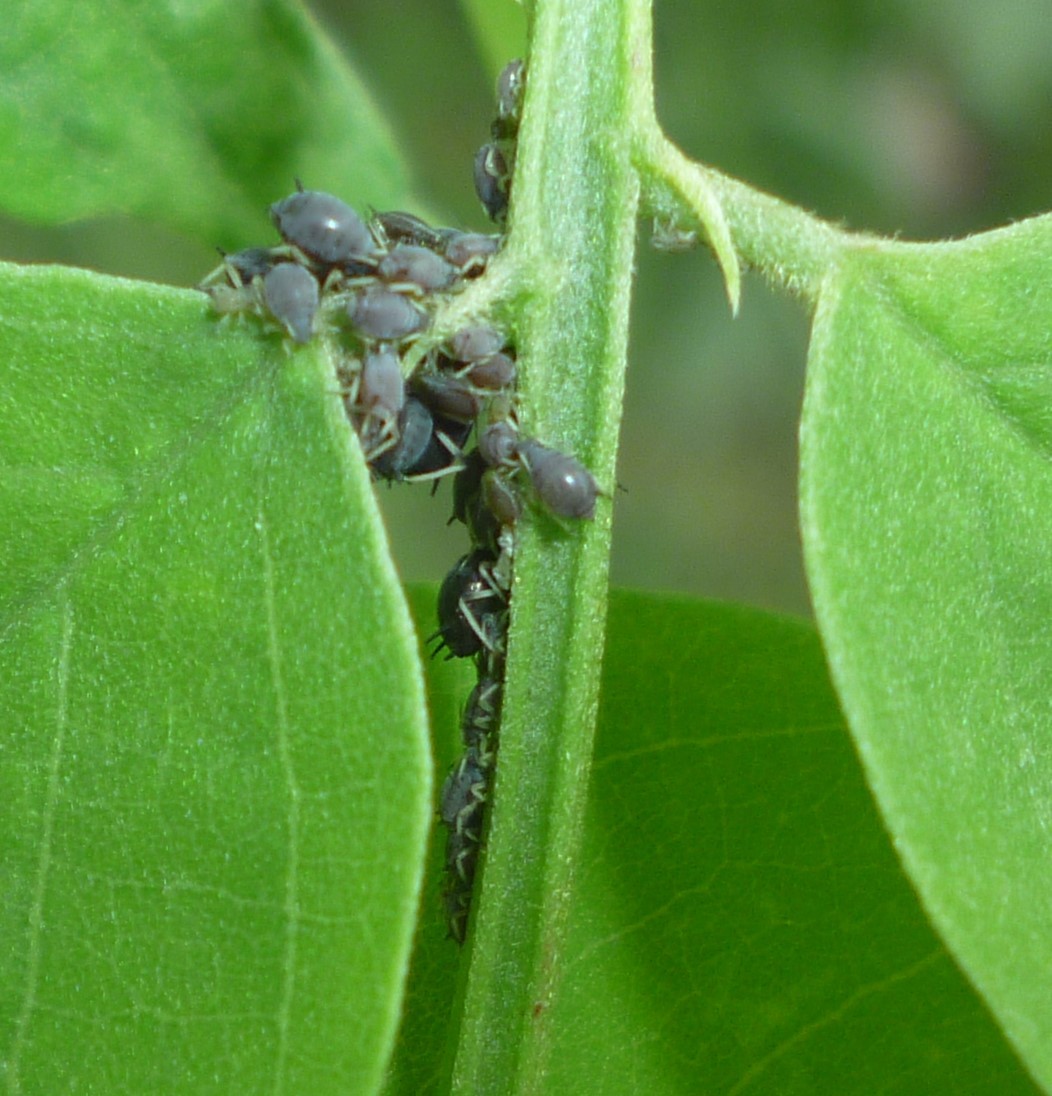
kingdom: Animalia
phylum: Arthropoda
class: Insecta
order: Hemiptera
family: Aphididae
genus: Aphis
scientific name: Aphis craccivora
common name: Cowpea aphid
